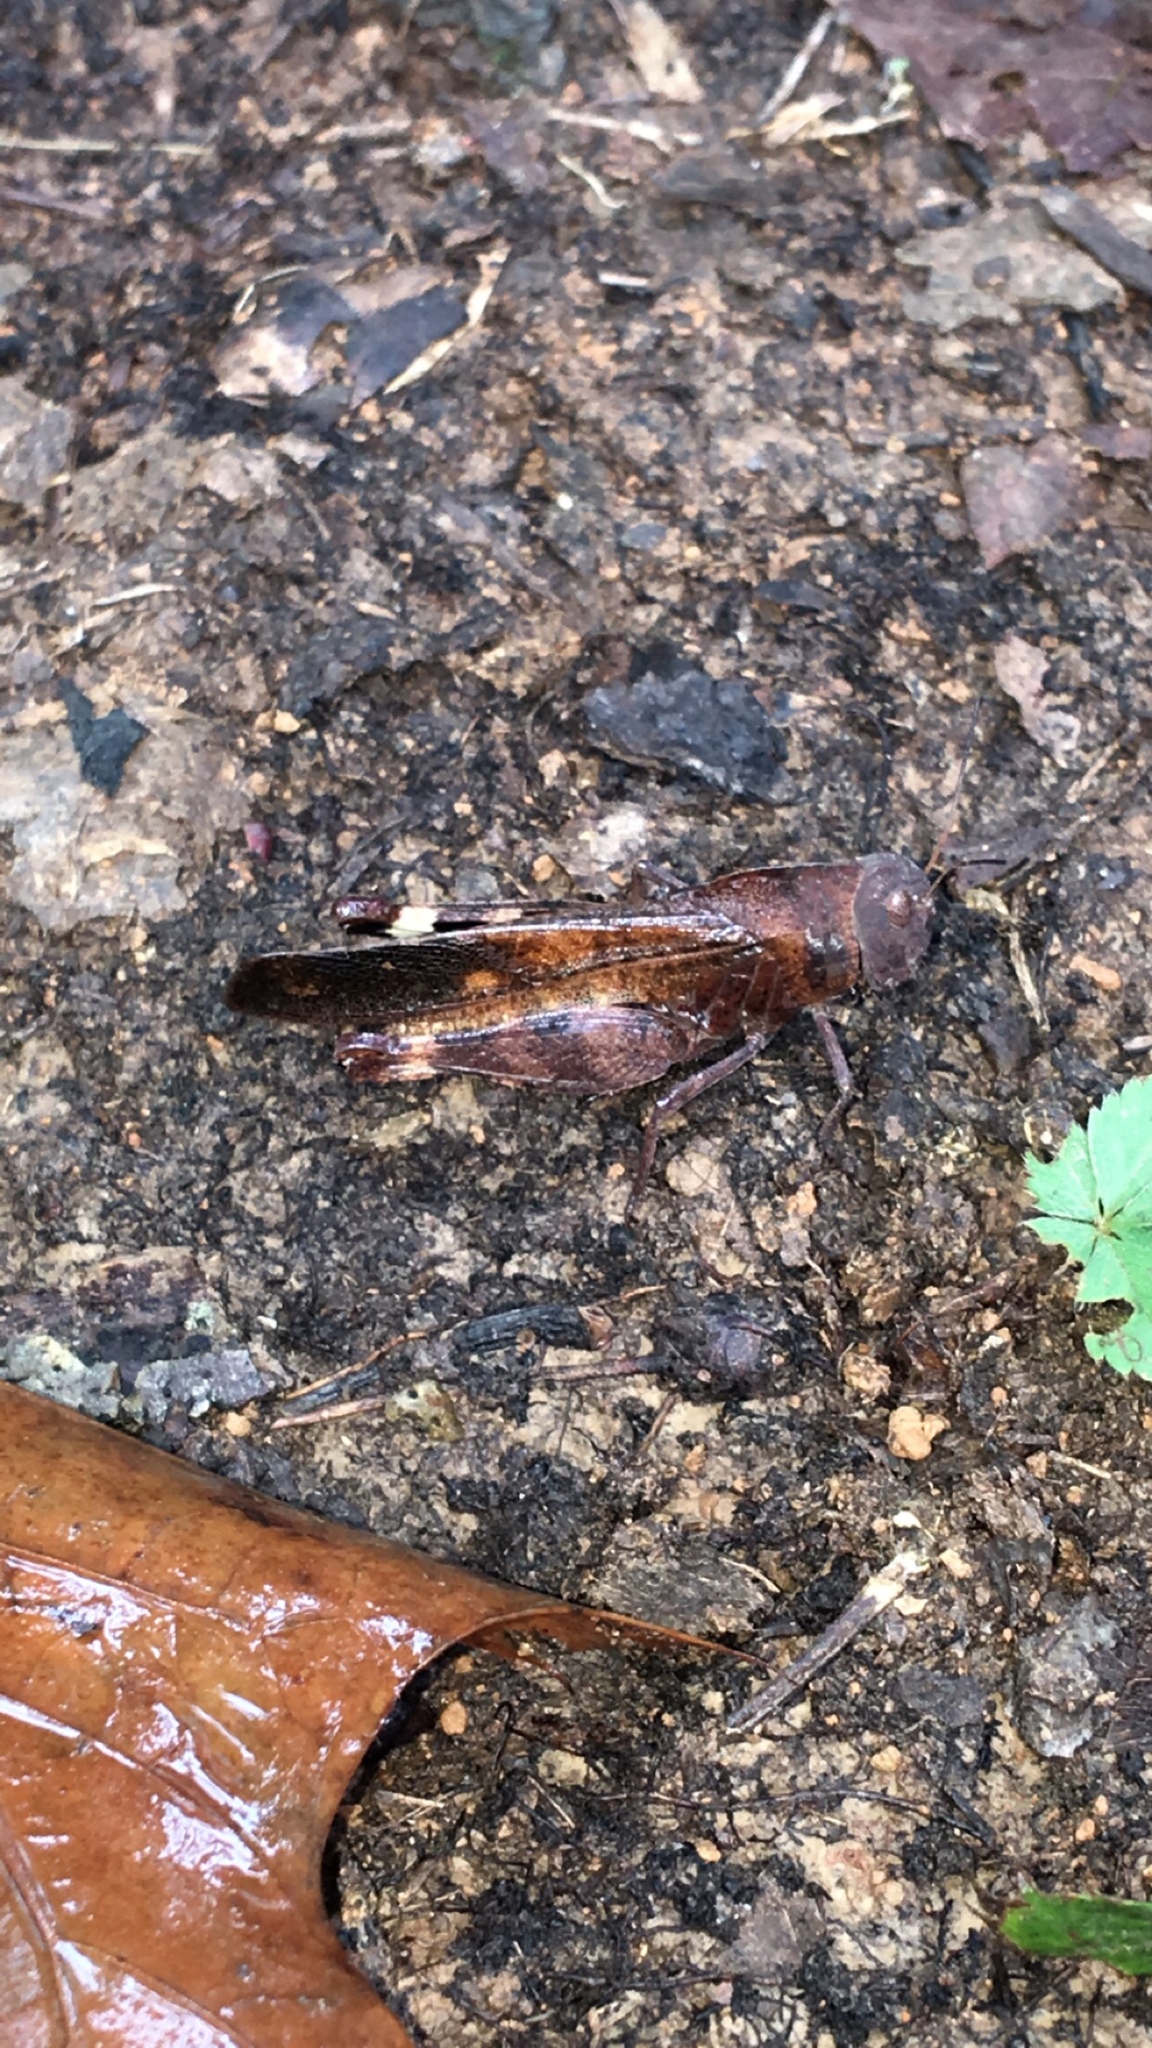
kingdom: Animalia
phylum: Arthropoda
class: Insecta
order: Orthoptera
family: Acrididae
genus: Arphia
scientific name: Arphia xanthoptera
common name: Autumn yellow-winged grasshopper
